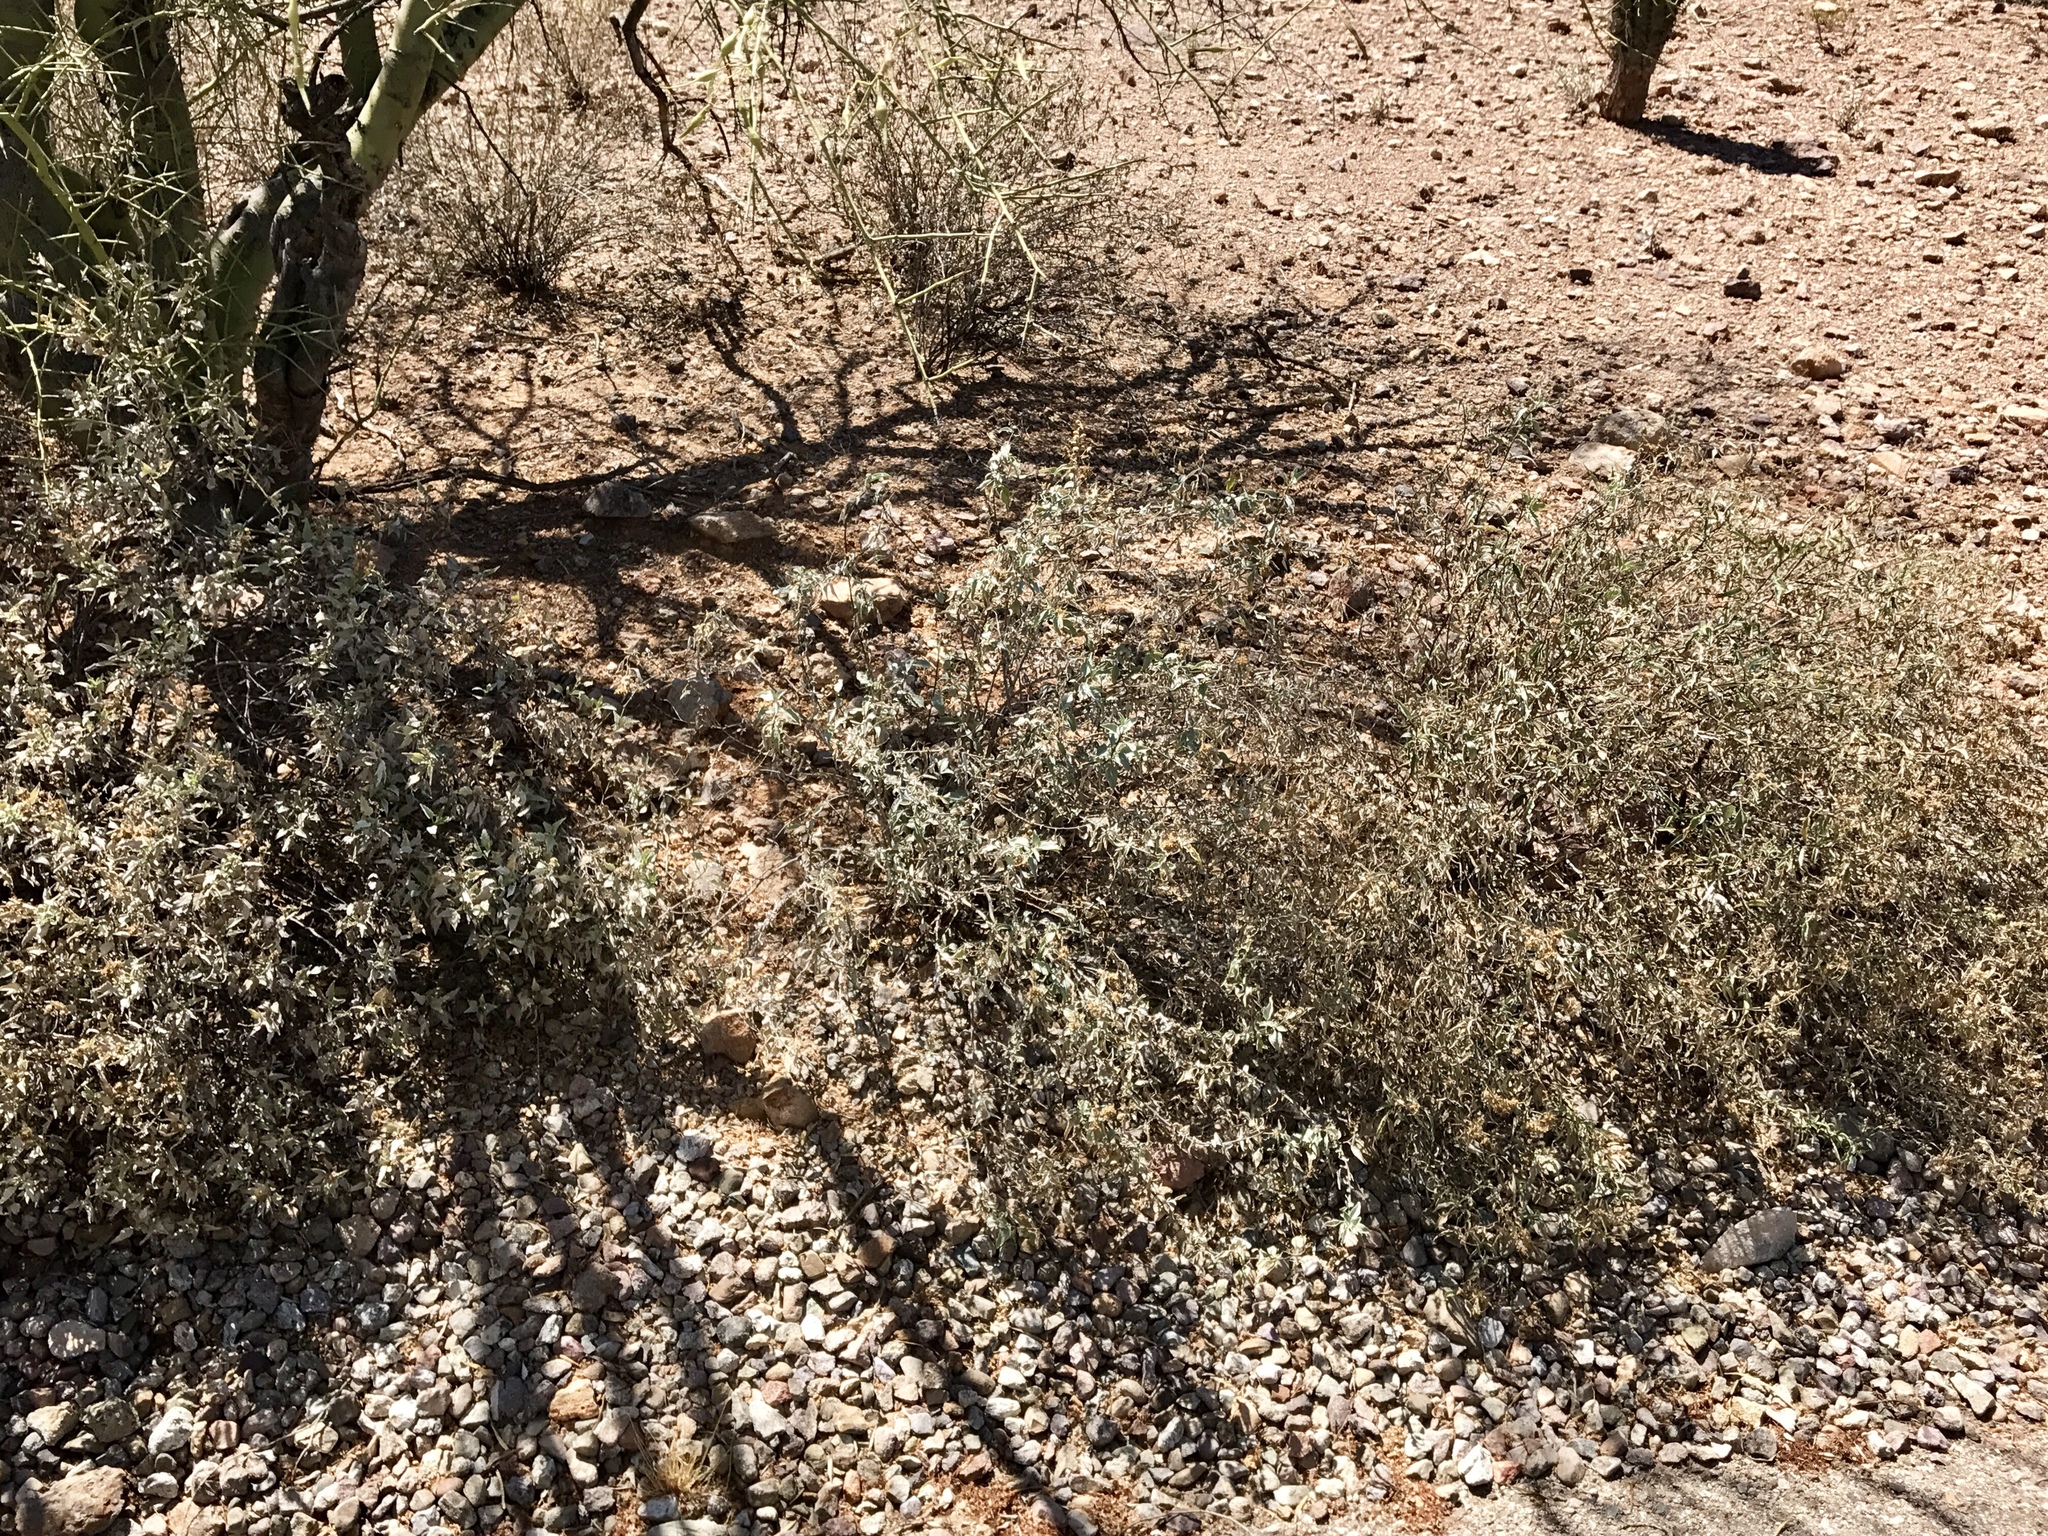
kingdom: Plantae
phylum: Tracheophyta
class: Magnoliopsida
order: Asterales
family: Asteraceae
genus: Ambrosia
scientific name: Ambrosia deltoidea
